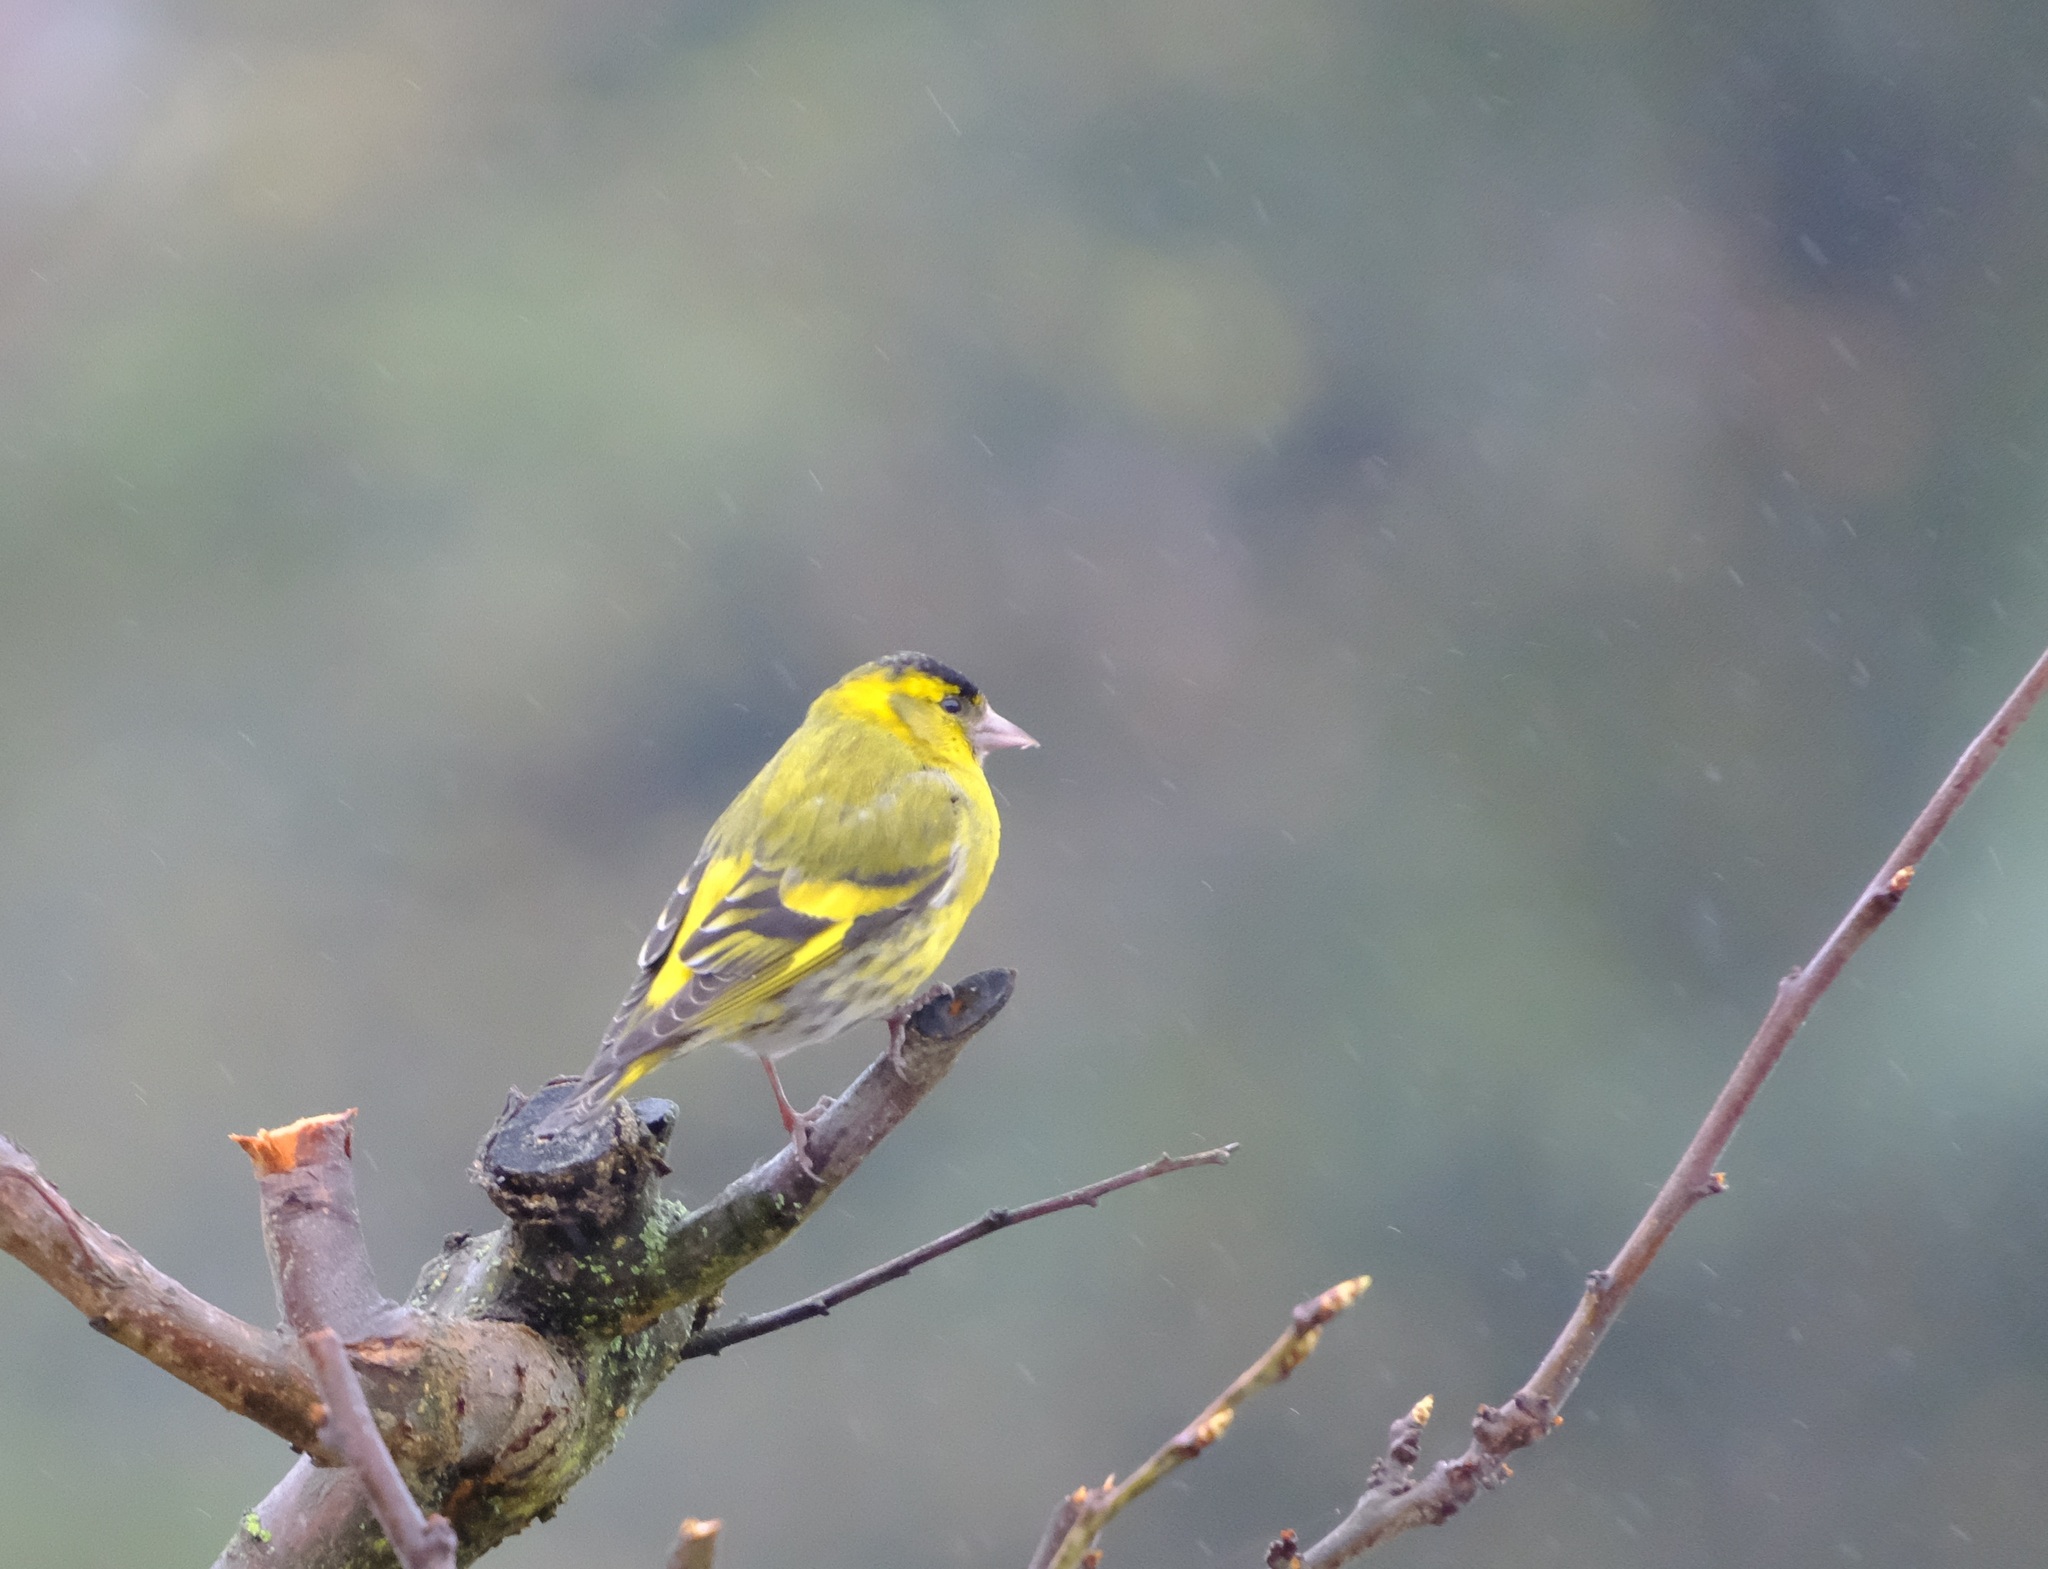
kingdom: Animalia
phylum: Chordata
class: Aves
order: Passeriformes
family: Fringillidae
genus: Spinus
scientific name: Spinus spinus
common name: Eurasian siskin
